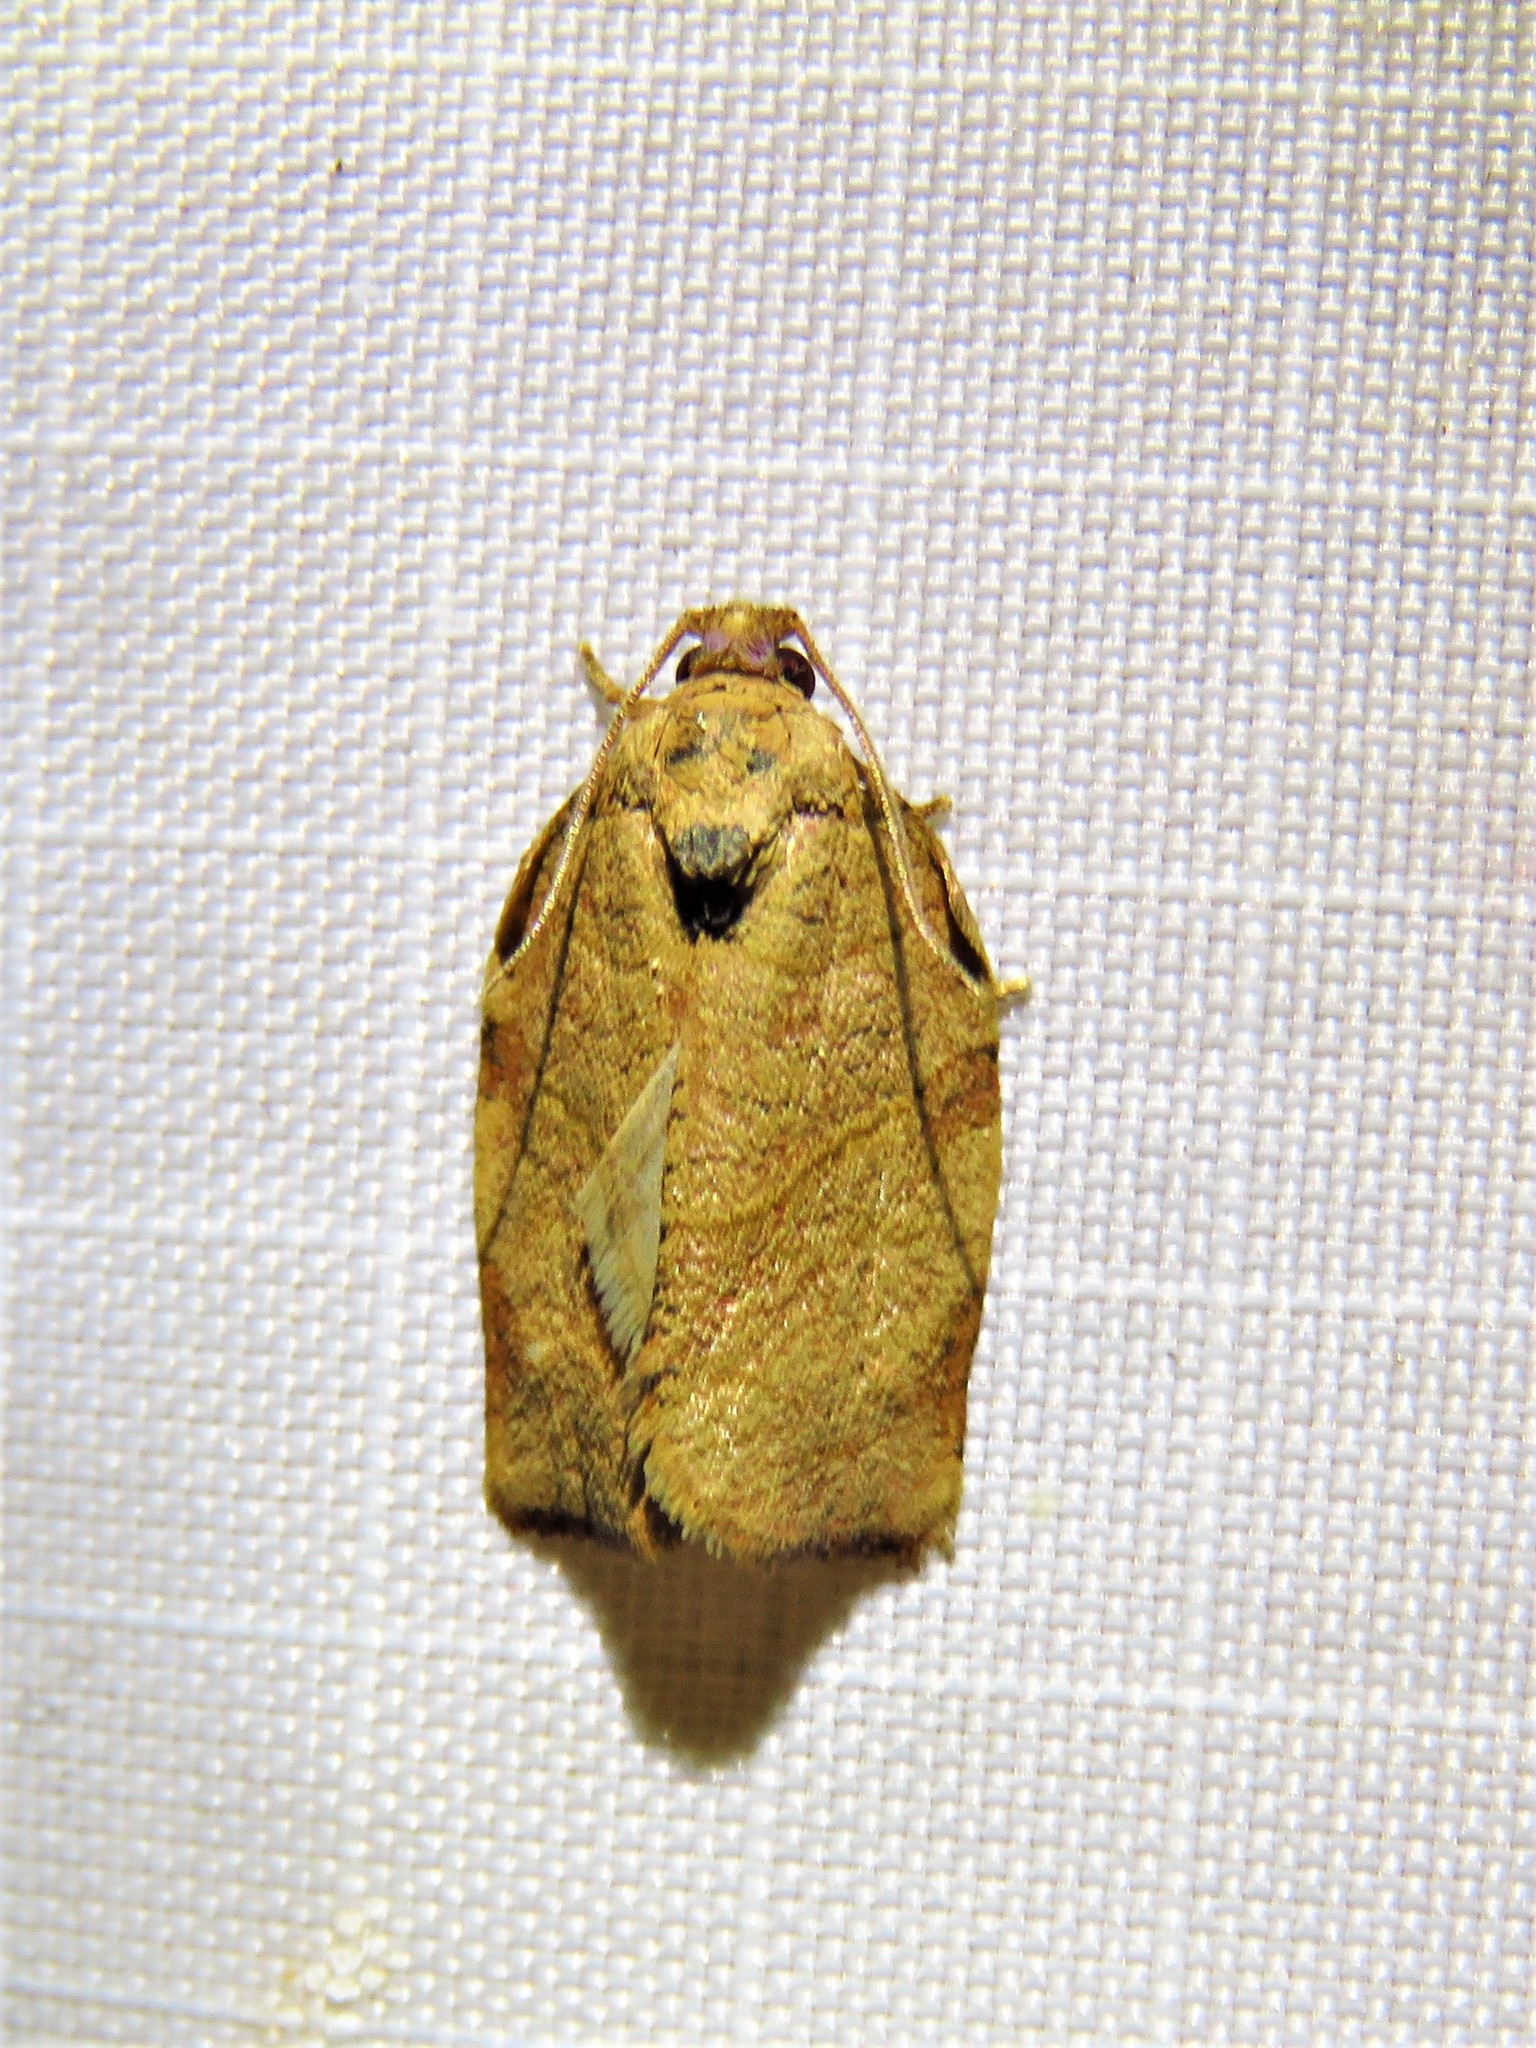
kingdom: Animalia
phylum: Arthropoda
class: Insecta
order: Lepidoptera
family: Tortricidae
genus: Choristoneura
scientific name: Choristoneura rosaceana
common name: Oblique-banded leafroller moth
